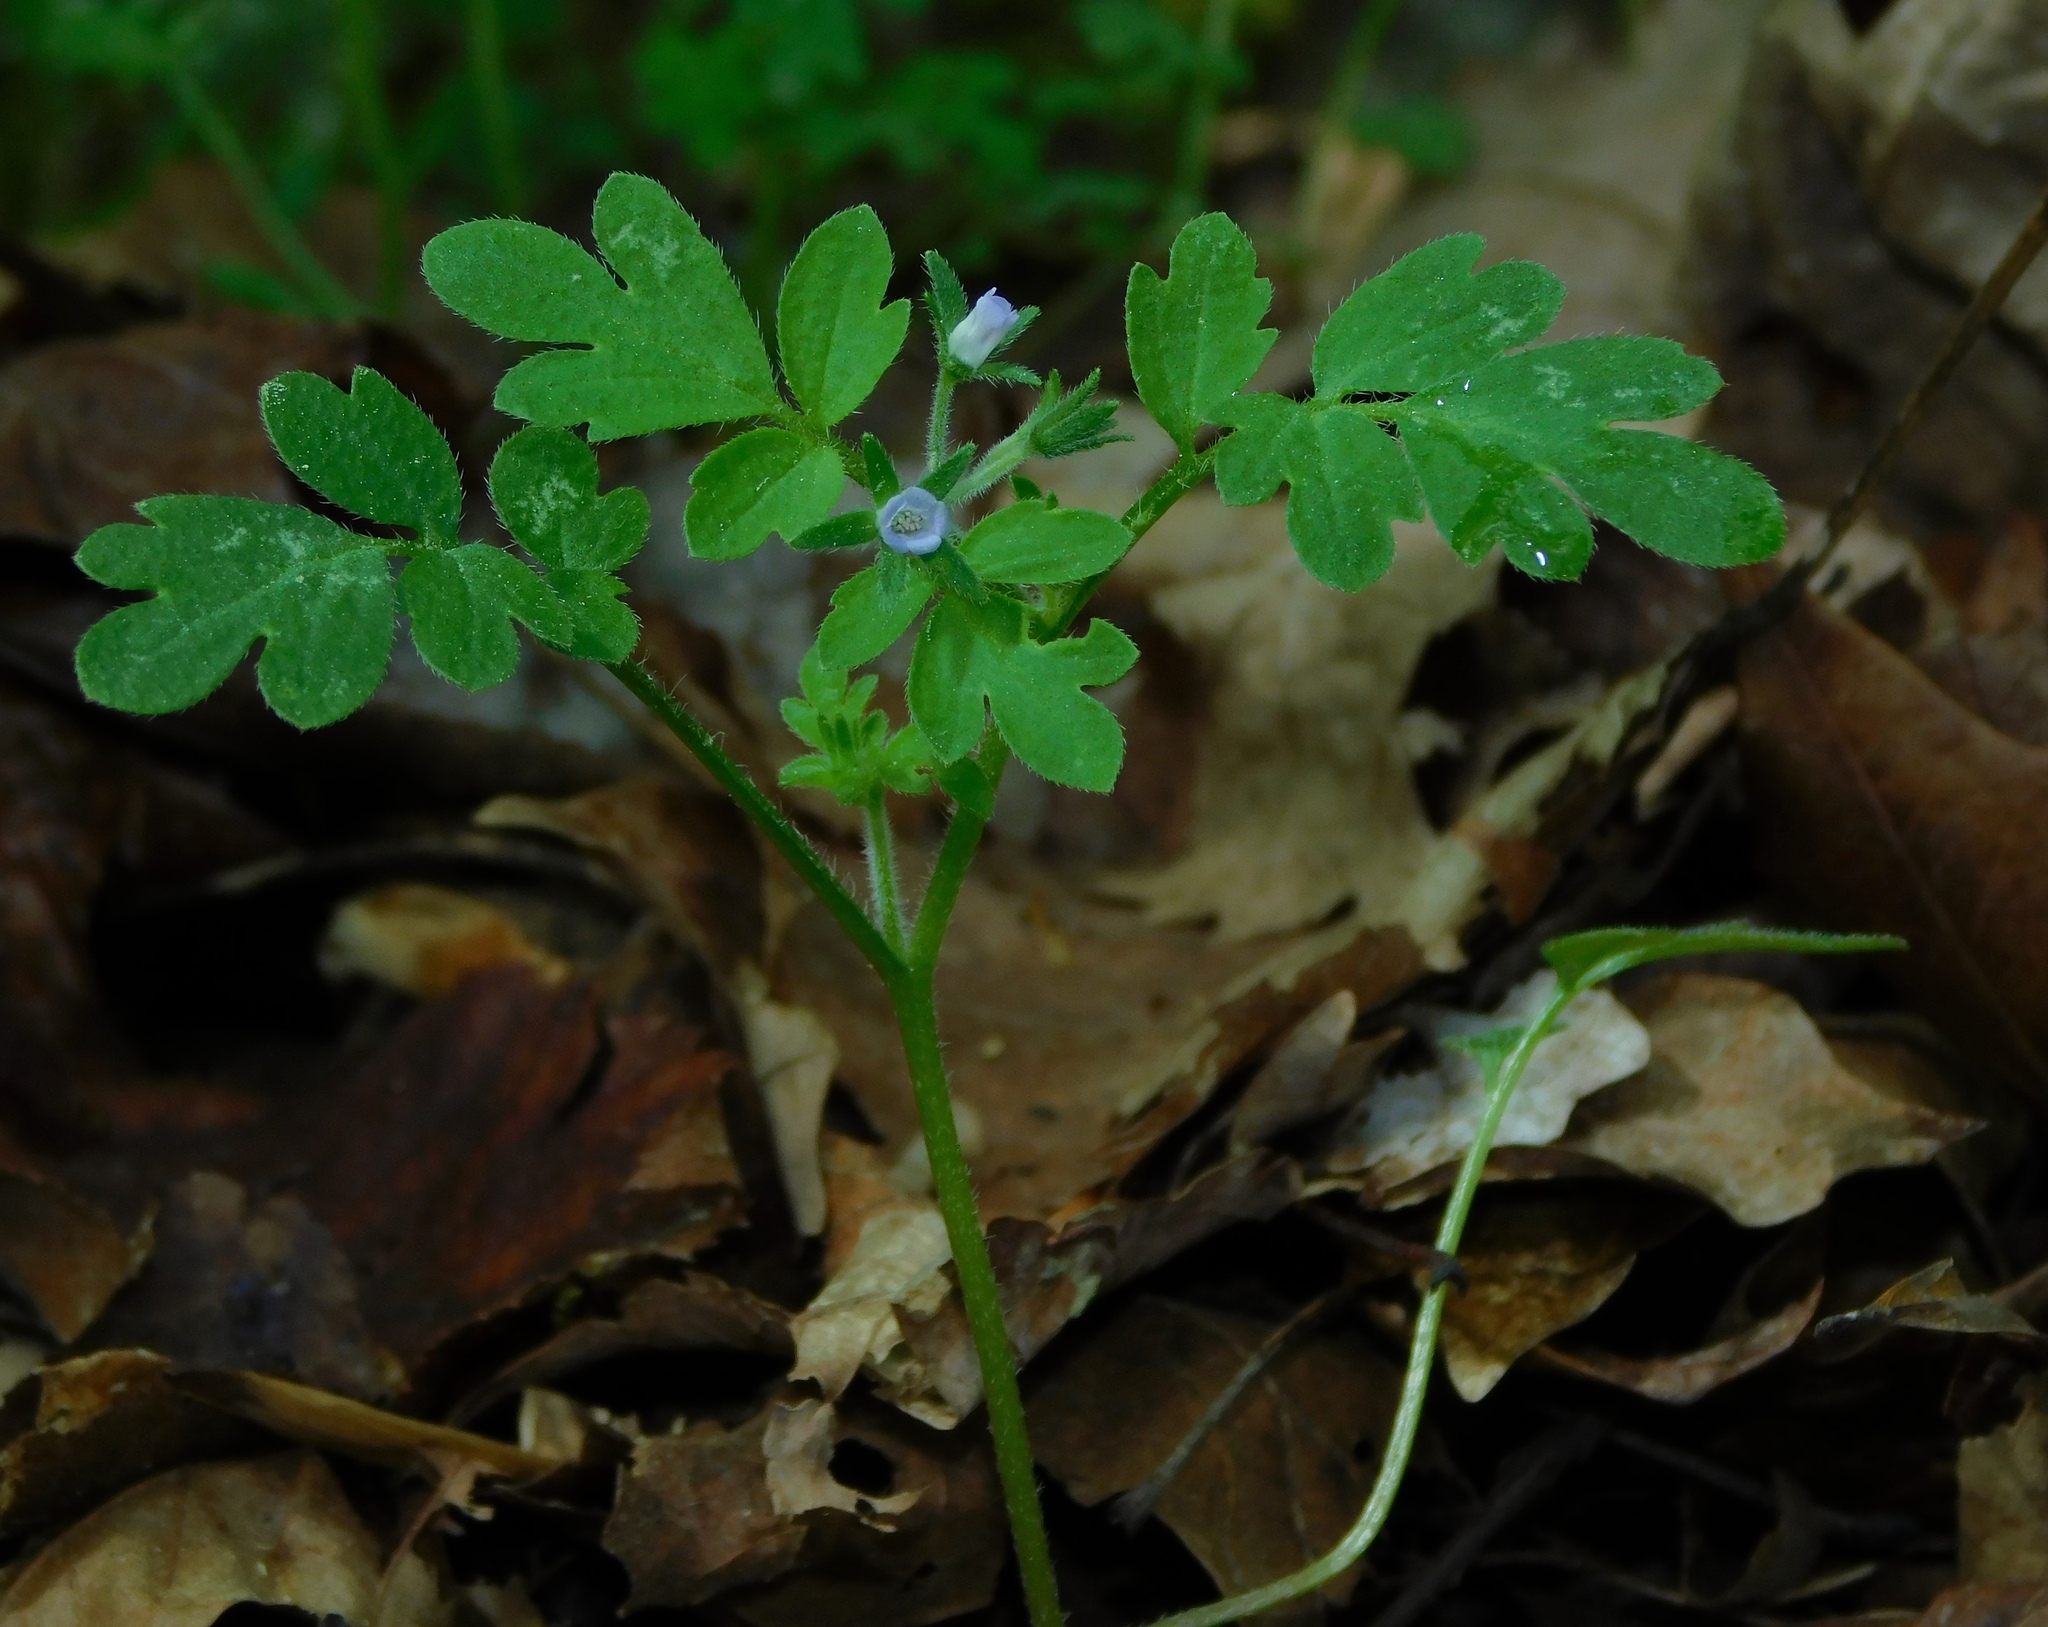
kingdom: Plantae
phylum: Tracheophyta
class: Magnoliopsida
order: Boraginales
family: Hydrophyllaceae
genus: Phacelia
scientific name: Phacelia covillei
